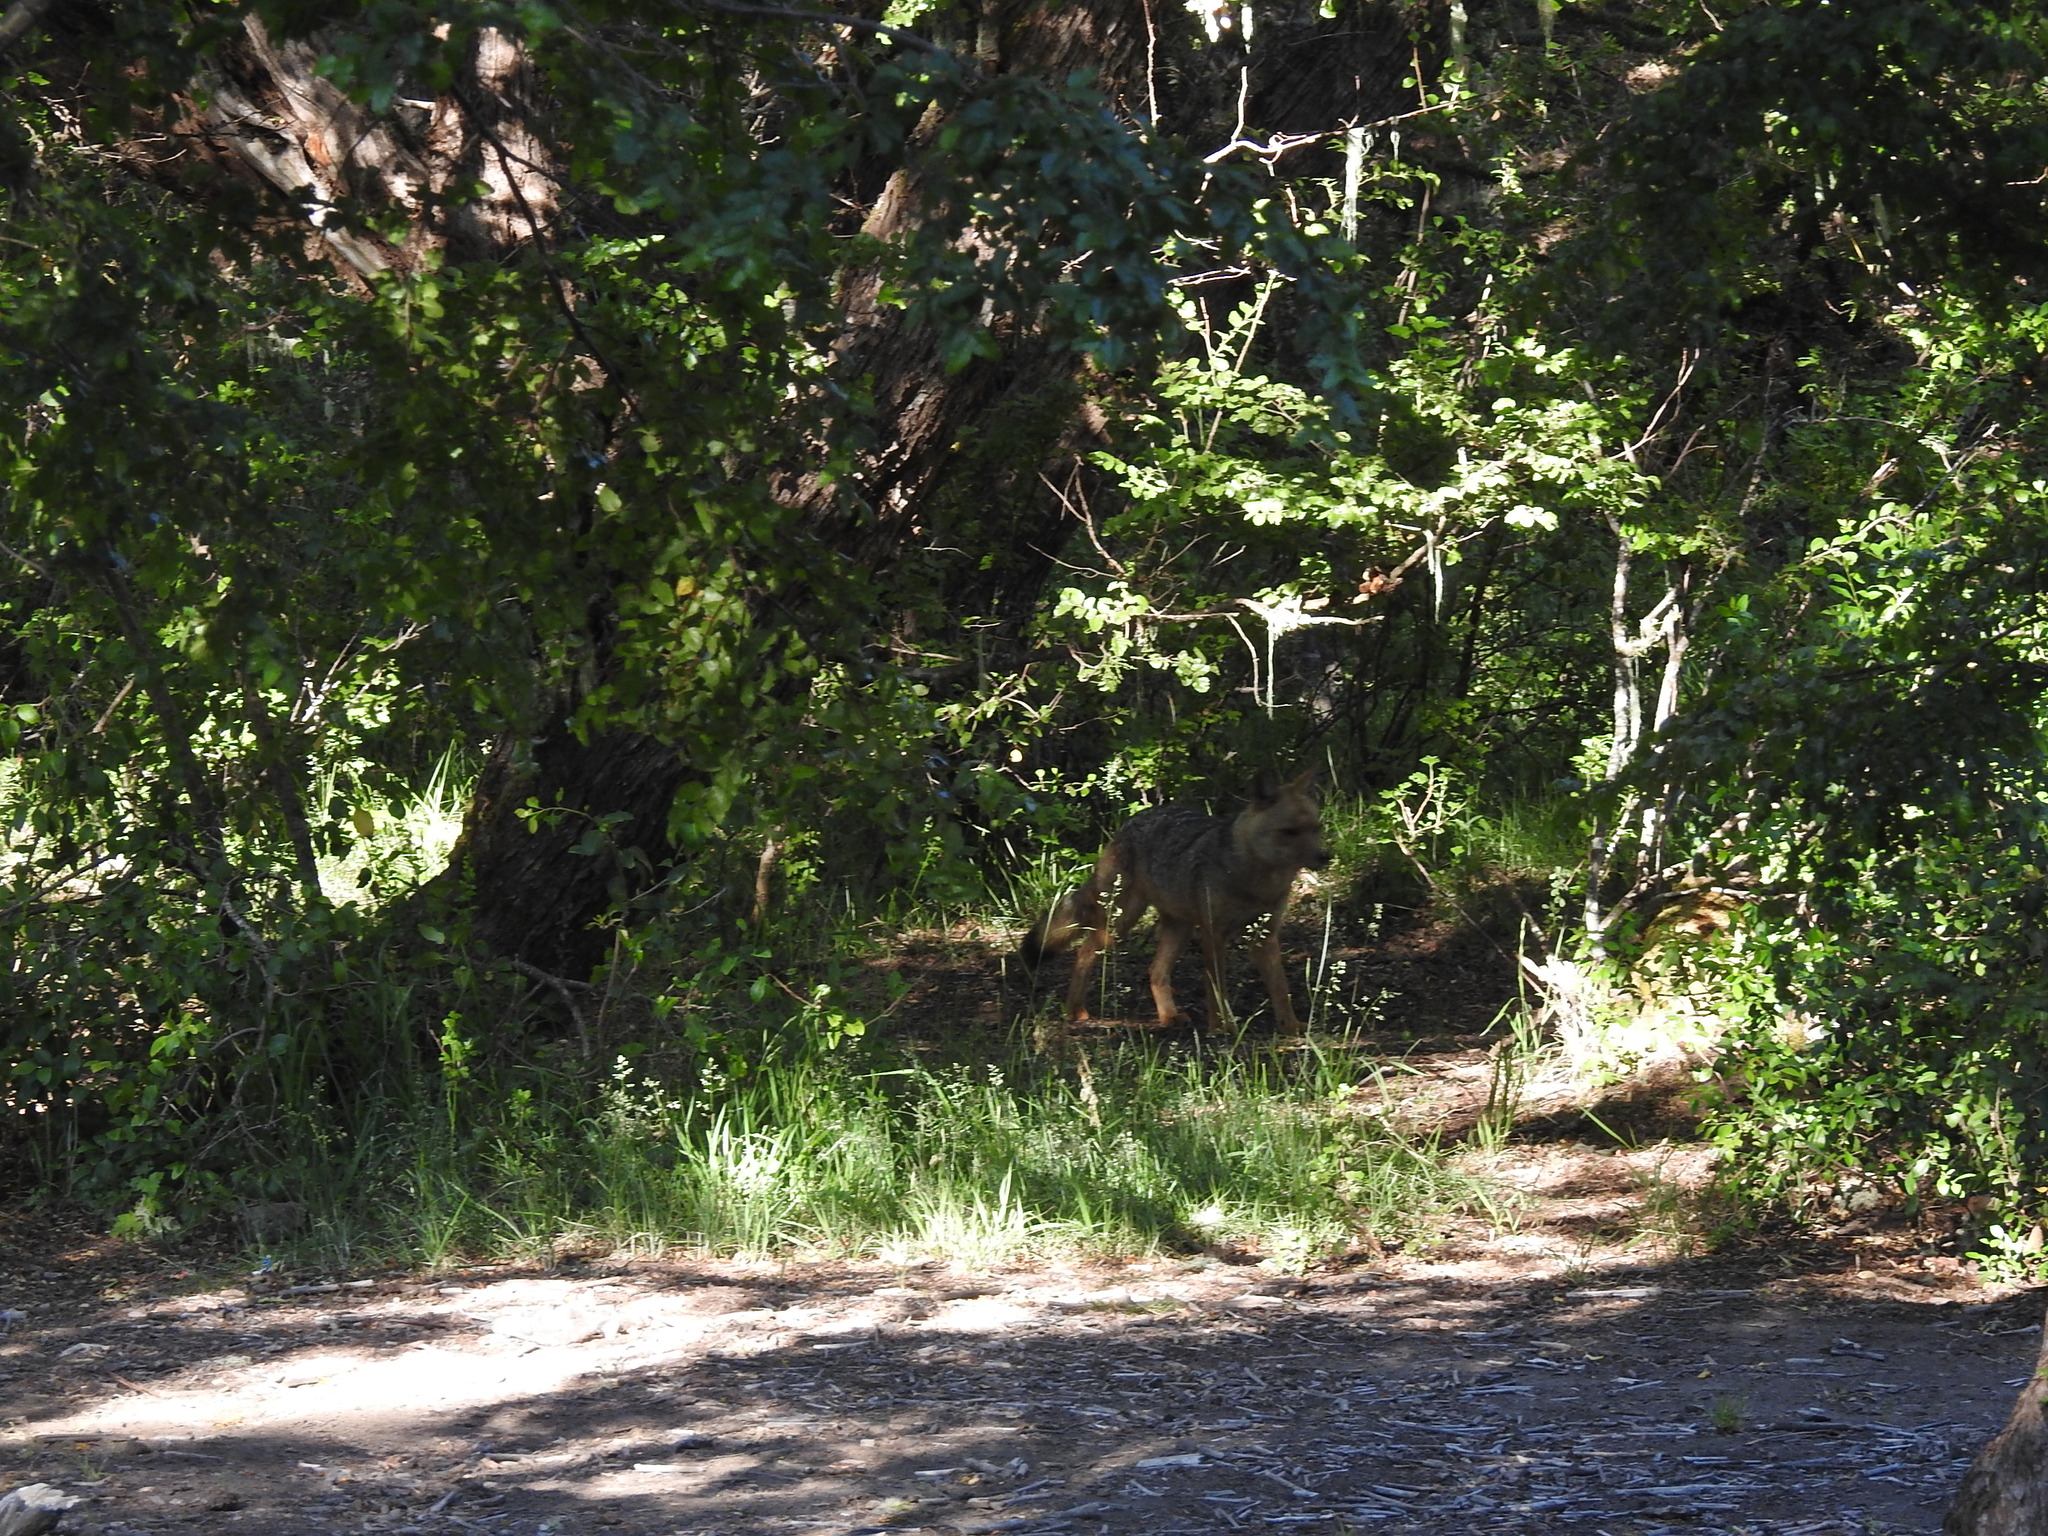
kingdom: Animalia
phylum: Chordata
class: Mammalia
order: Carnivora
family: Canidae
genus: Lycalopex
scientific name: Lycalopex culpaeus
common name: Culpeo
